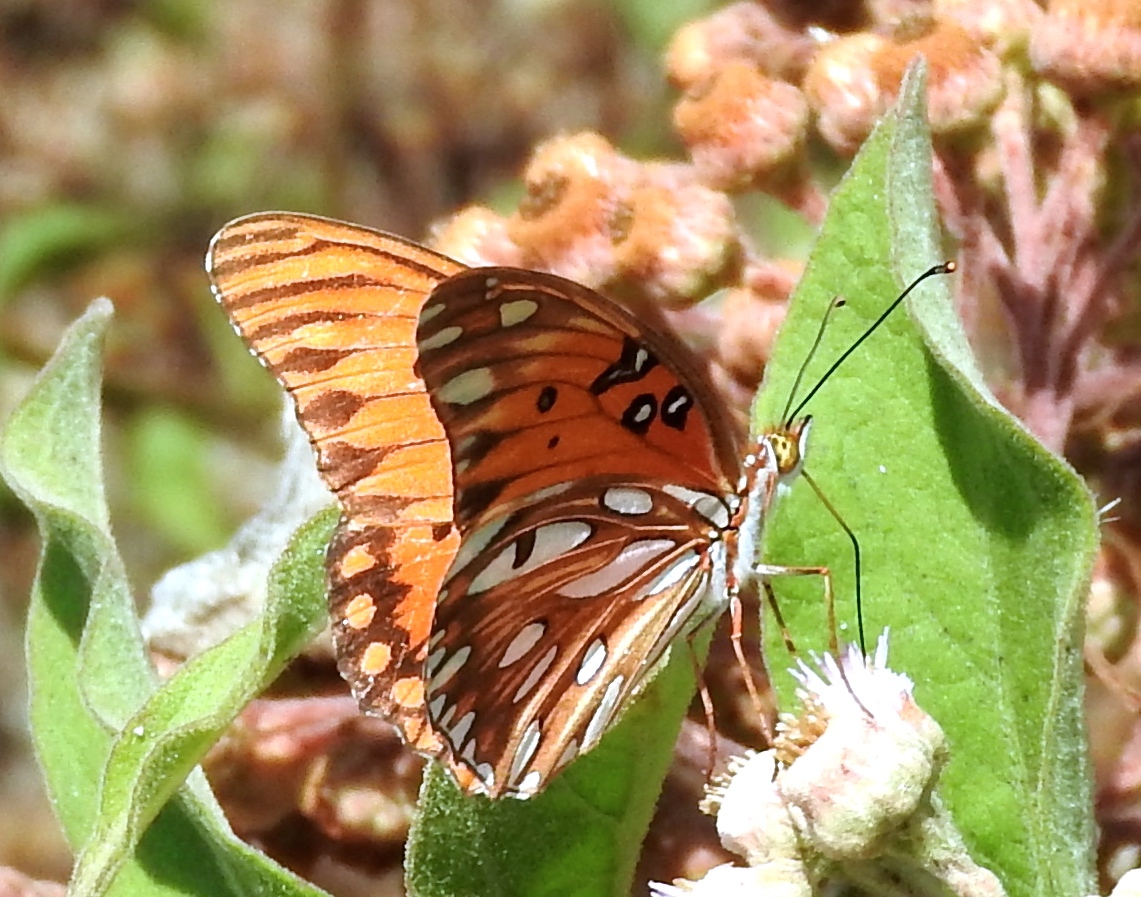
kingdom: Animalia
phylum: Arthropoda
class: Insecta
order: Lepidoptera
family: Nymphalidae
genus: Dione
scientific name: Dione vanillae
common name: Gulf fritillary
